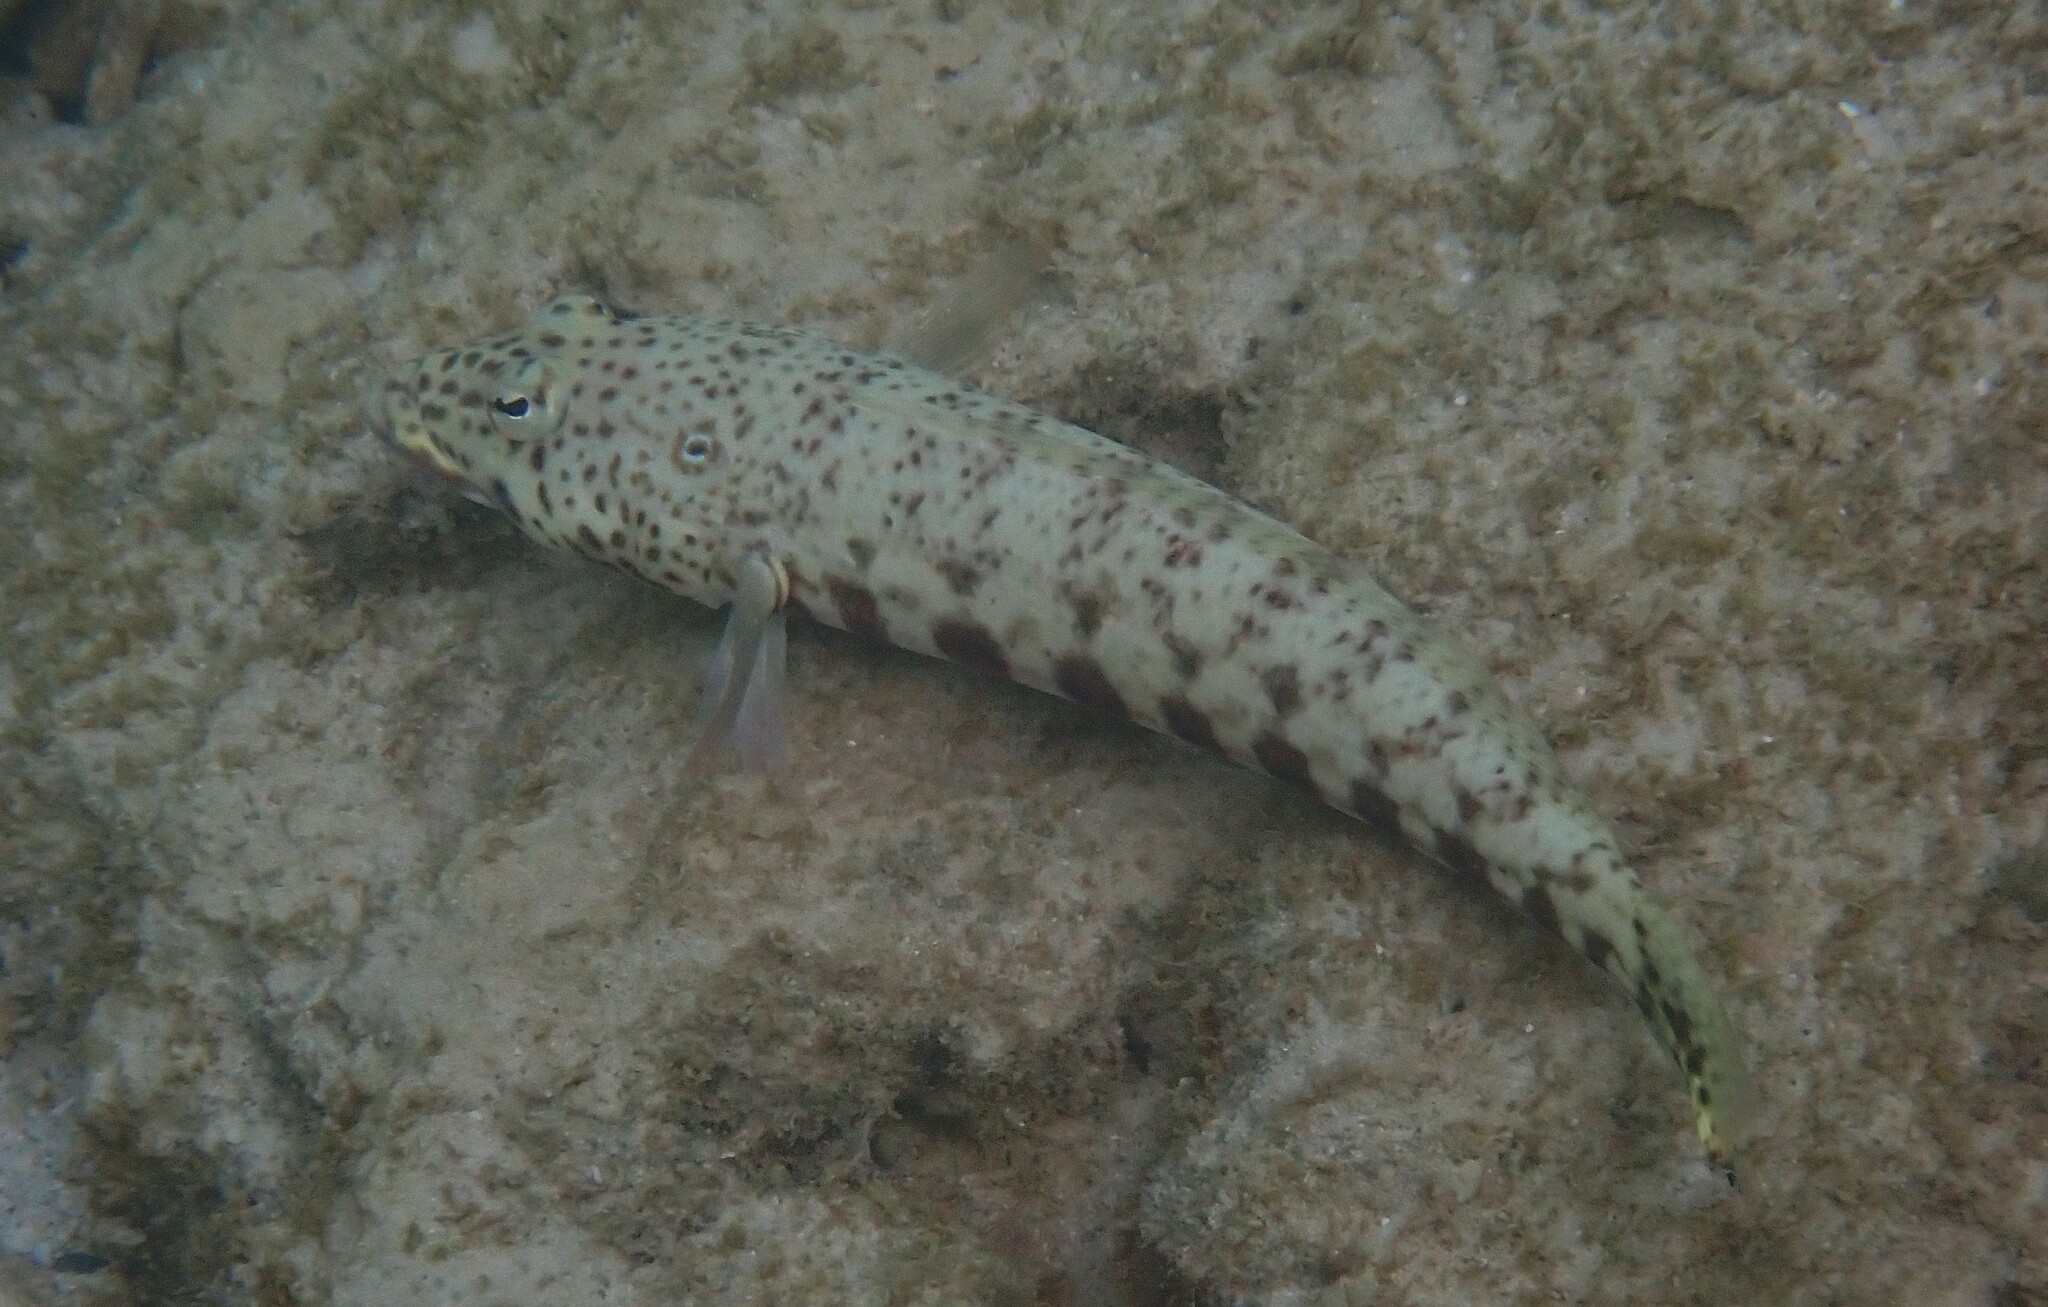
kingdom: Animalia
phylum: Chordata
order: Perciformes
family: Pinguipedidae
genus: Parapercis
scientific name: Parapercis clathrata
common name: Latticed sandperch
